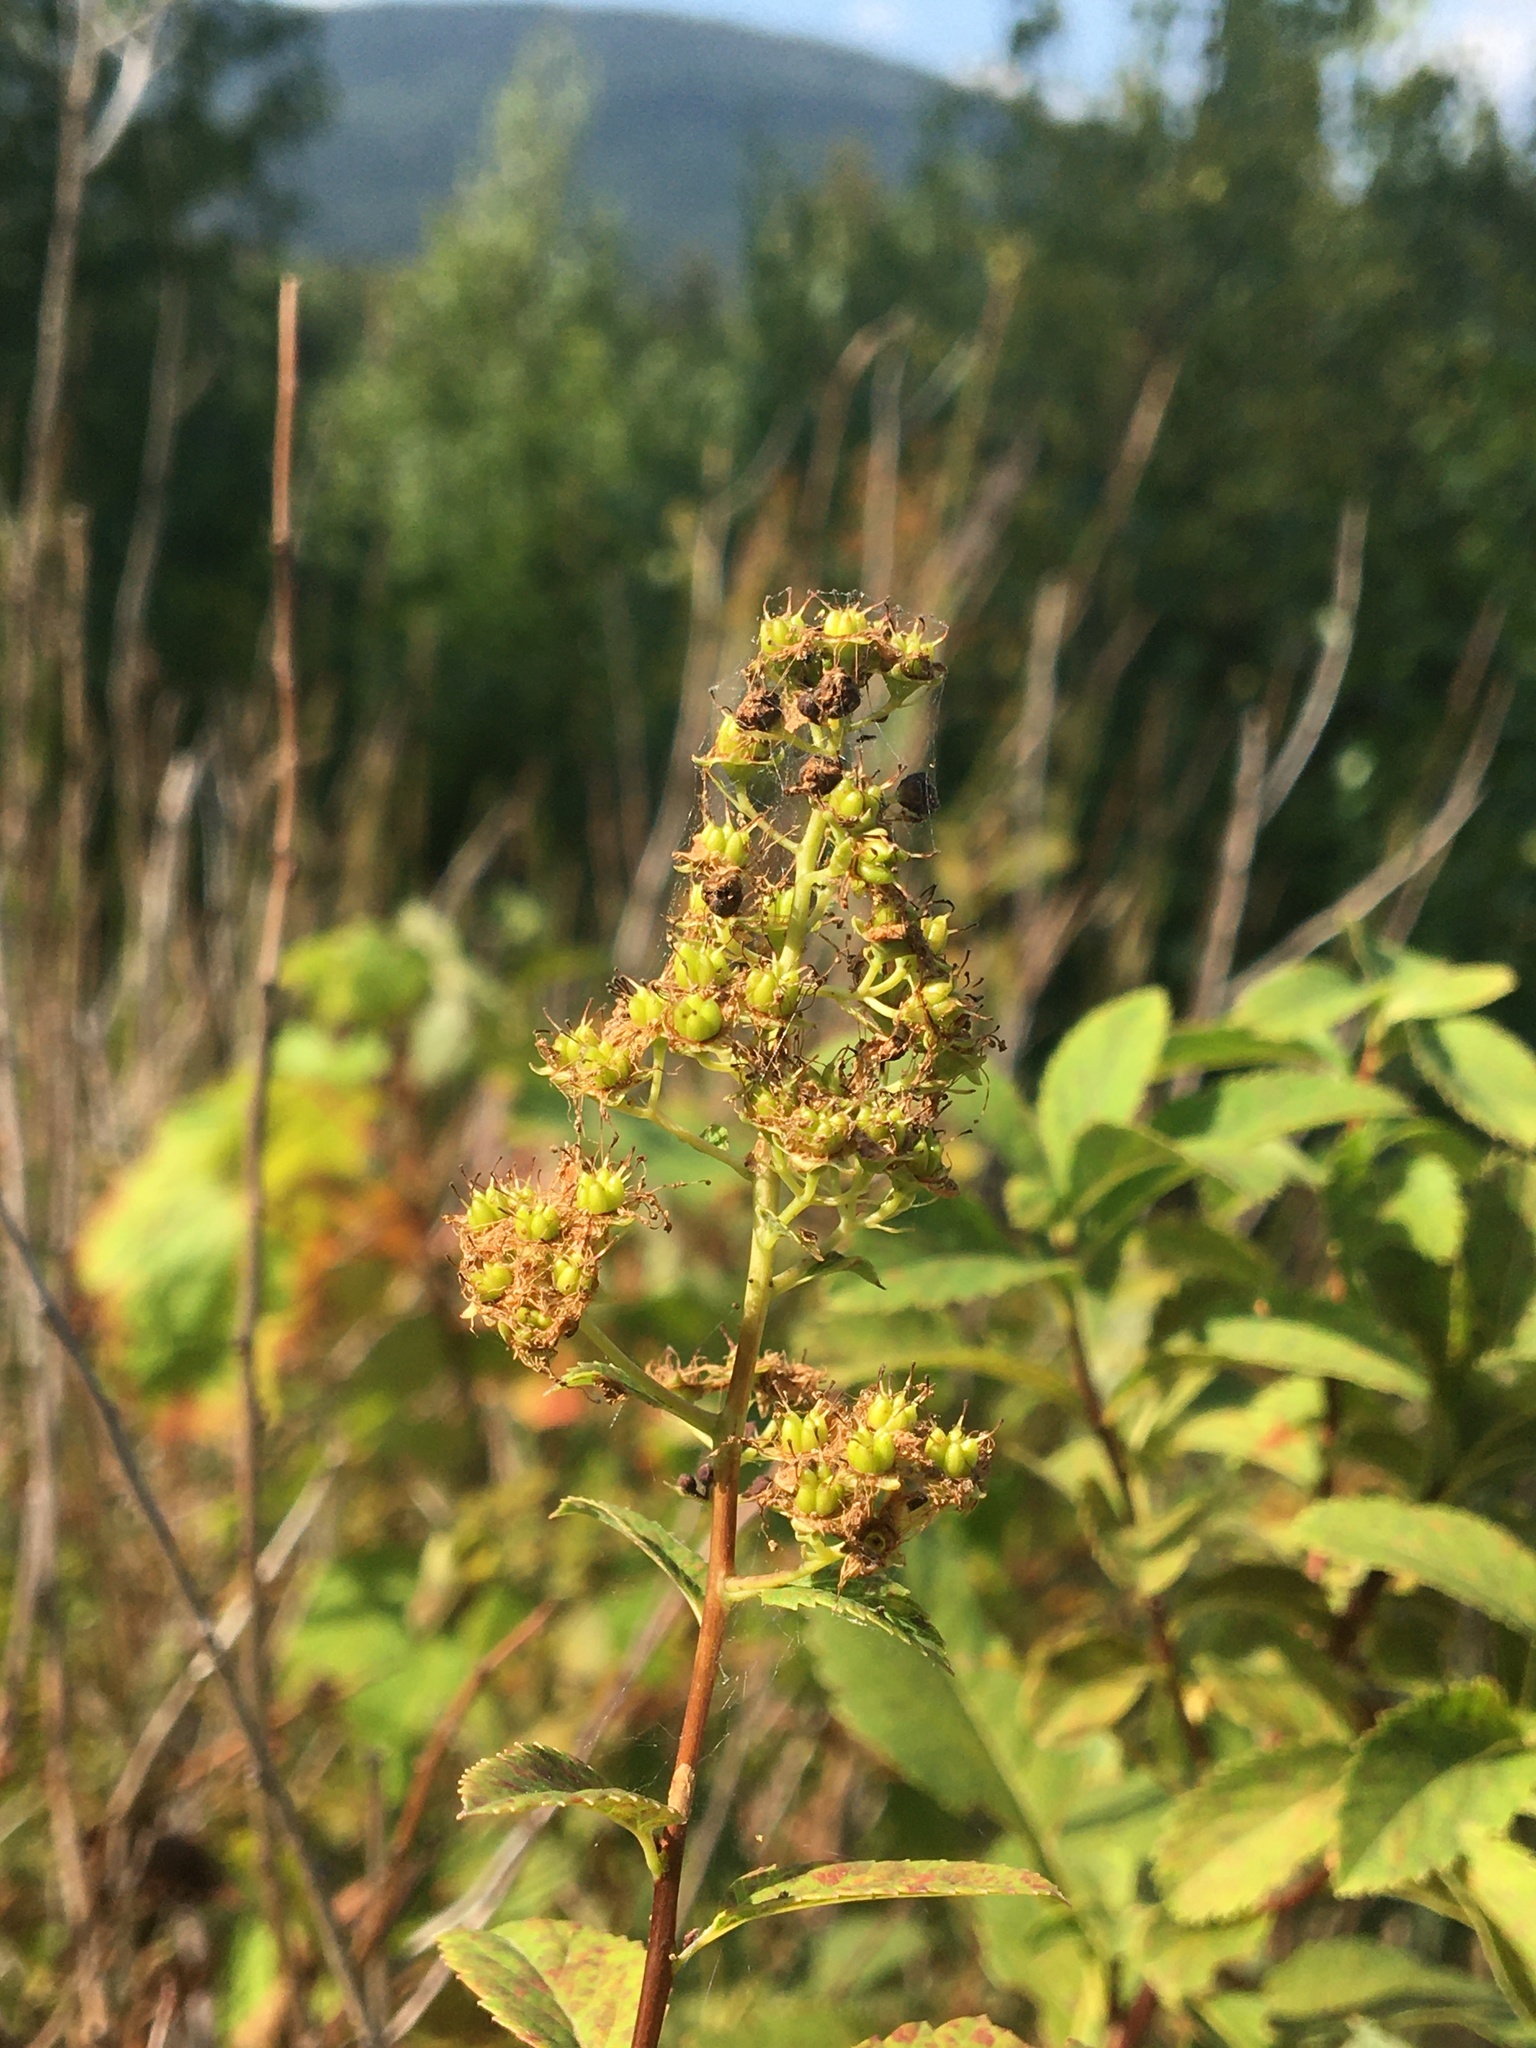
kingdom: Plantae
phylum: Tracheophyta
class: Magnoliopsida
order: Rosales
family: Rosaceae
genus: Spiraea
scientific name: Spiraea alba
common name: Pale bridewort
